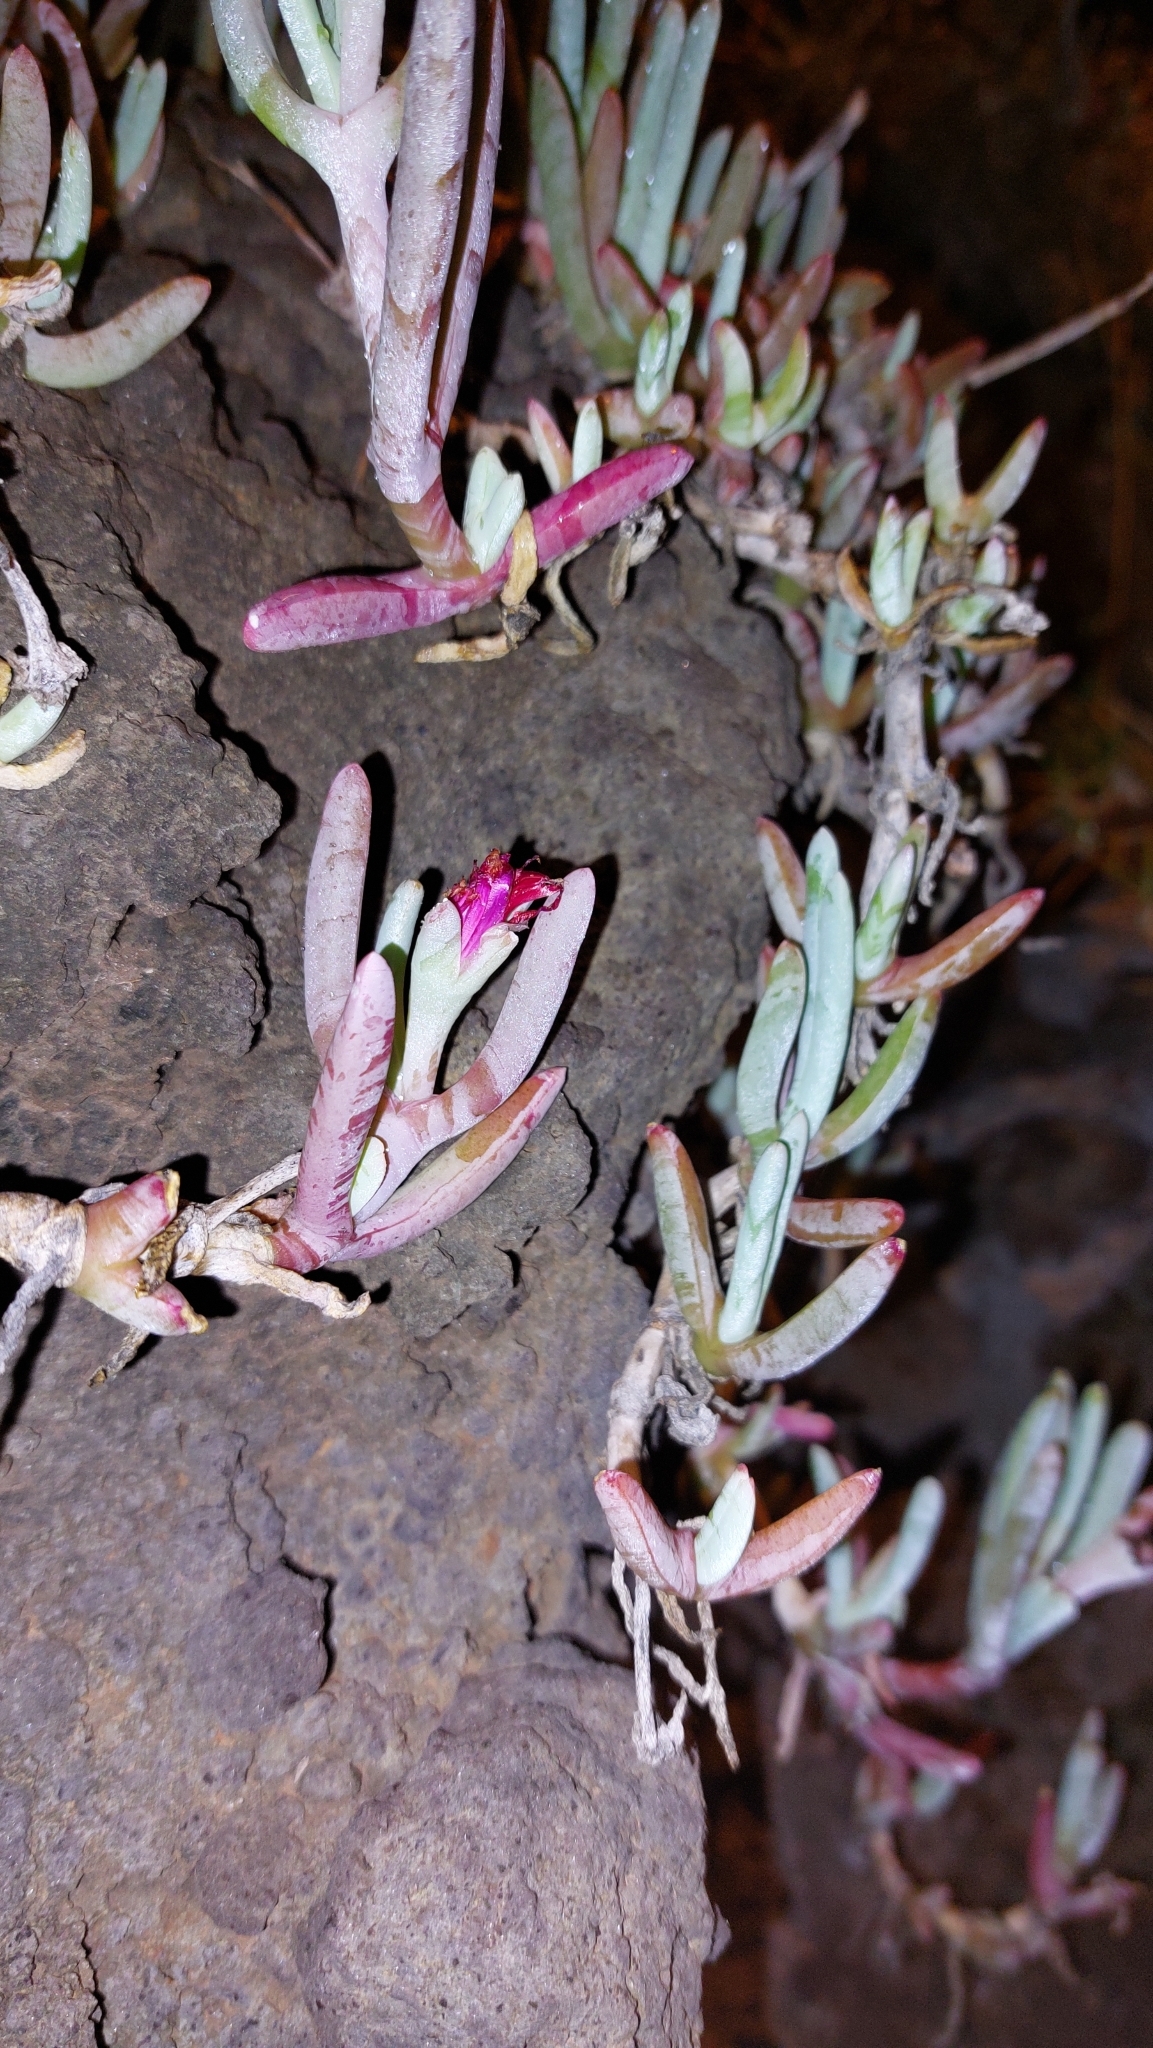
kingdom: Plantae
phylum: Tracheophyta
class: Magnoliopsida
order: Caryophyllales
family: Aizoaceae
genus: Malephora
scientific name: Malephora crocea
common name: Coppery mesemb
